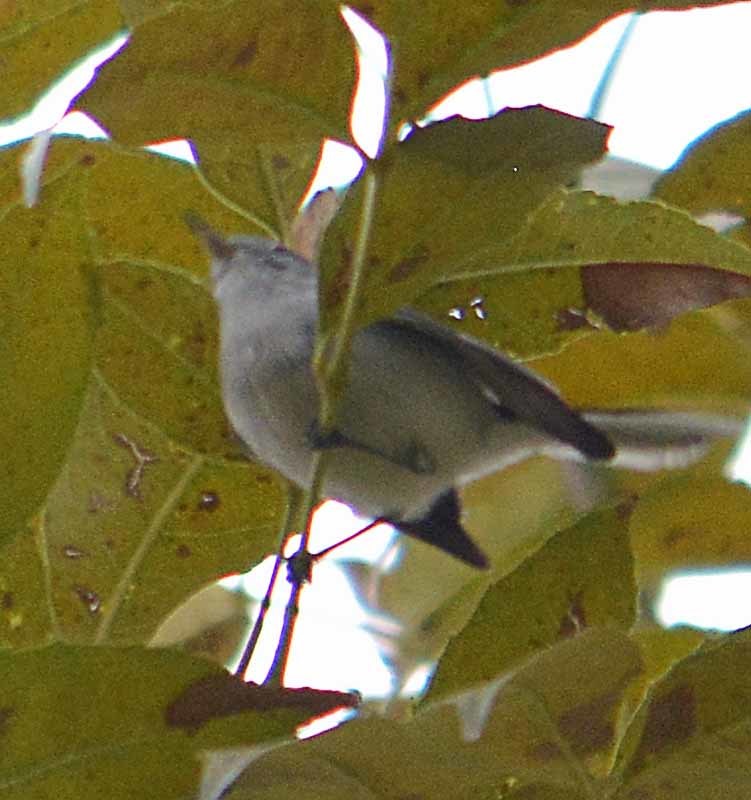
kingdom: Animalia
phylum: Chordata
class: Aves
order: Passeriformes
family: Polioptilidae
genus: Polioptila
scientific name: Polioptila caerulea
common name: Blue-gray gnatcatcher
